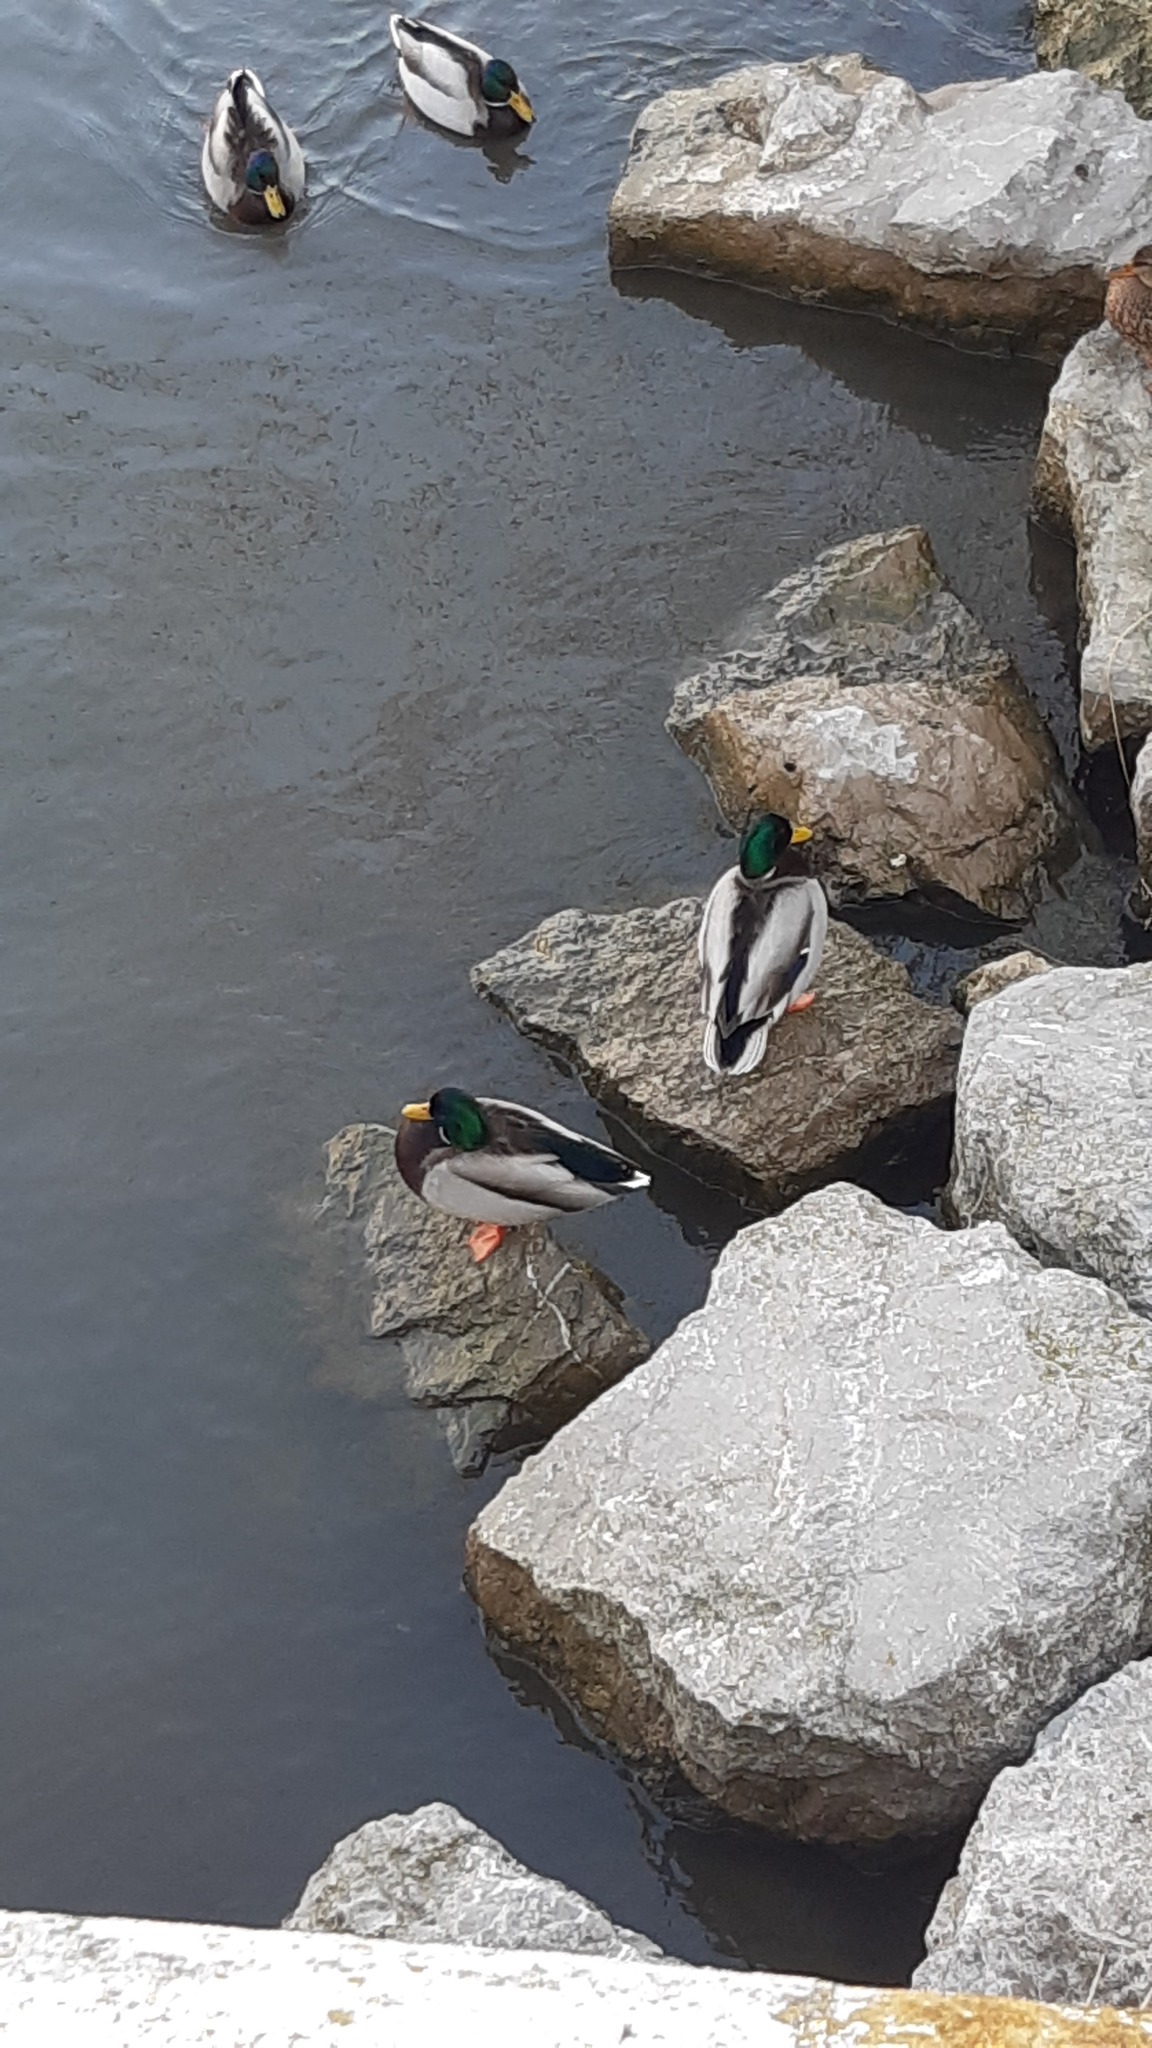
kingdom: Animalia
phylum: Chordata
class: Aves
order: Anseriformes
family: Anatidae
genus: Anas
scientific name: Anas platyrhynchos
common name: Mallard
